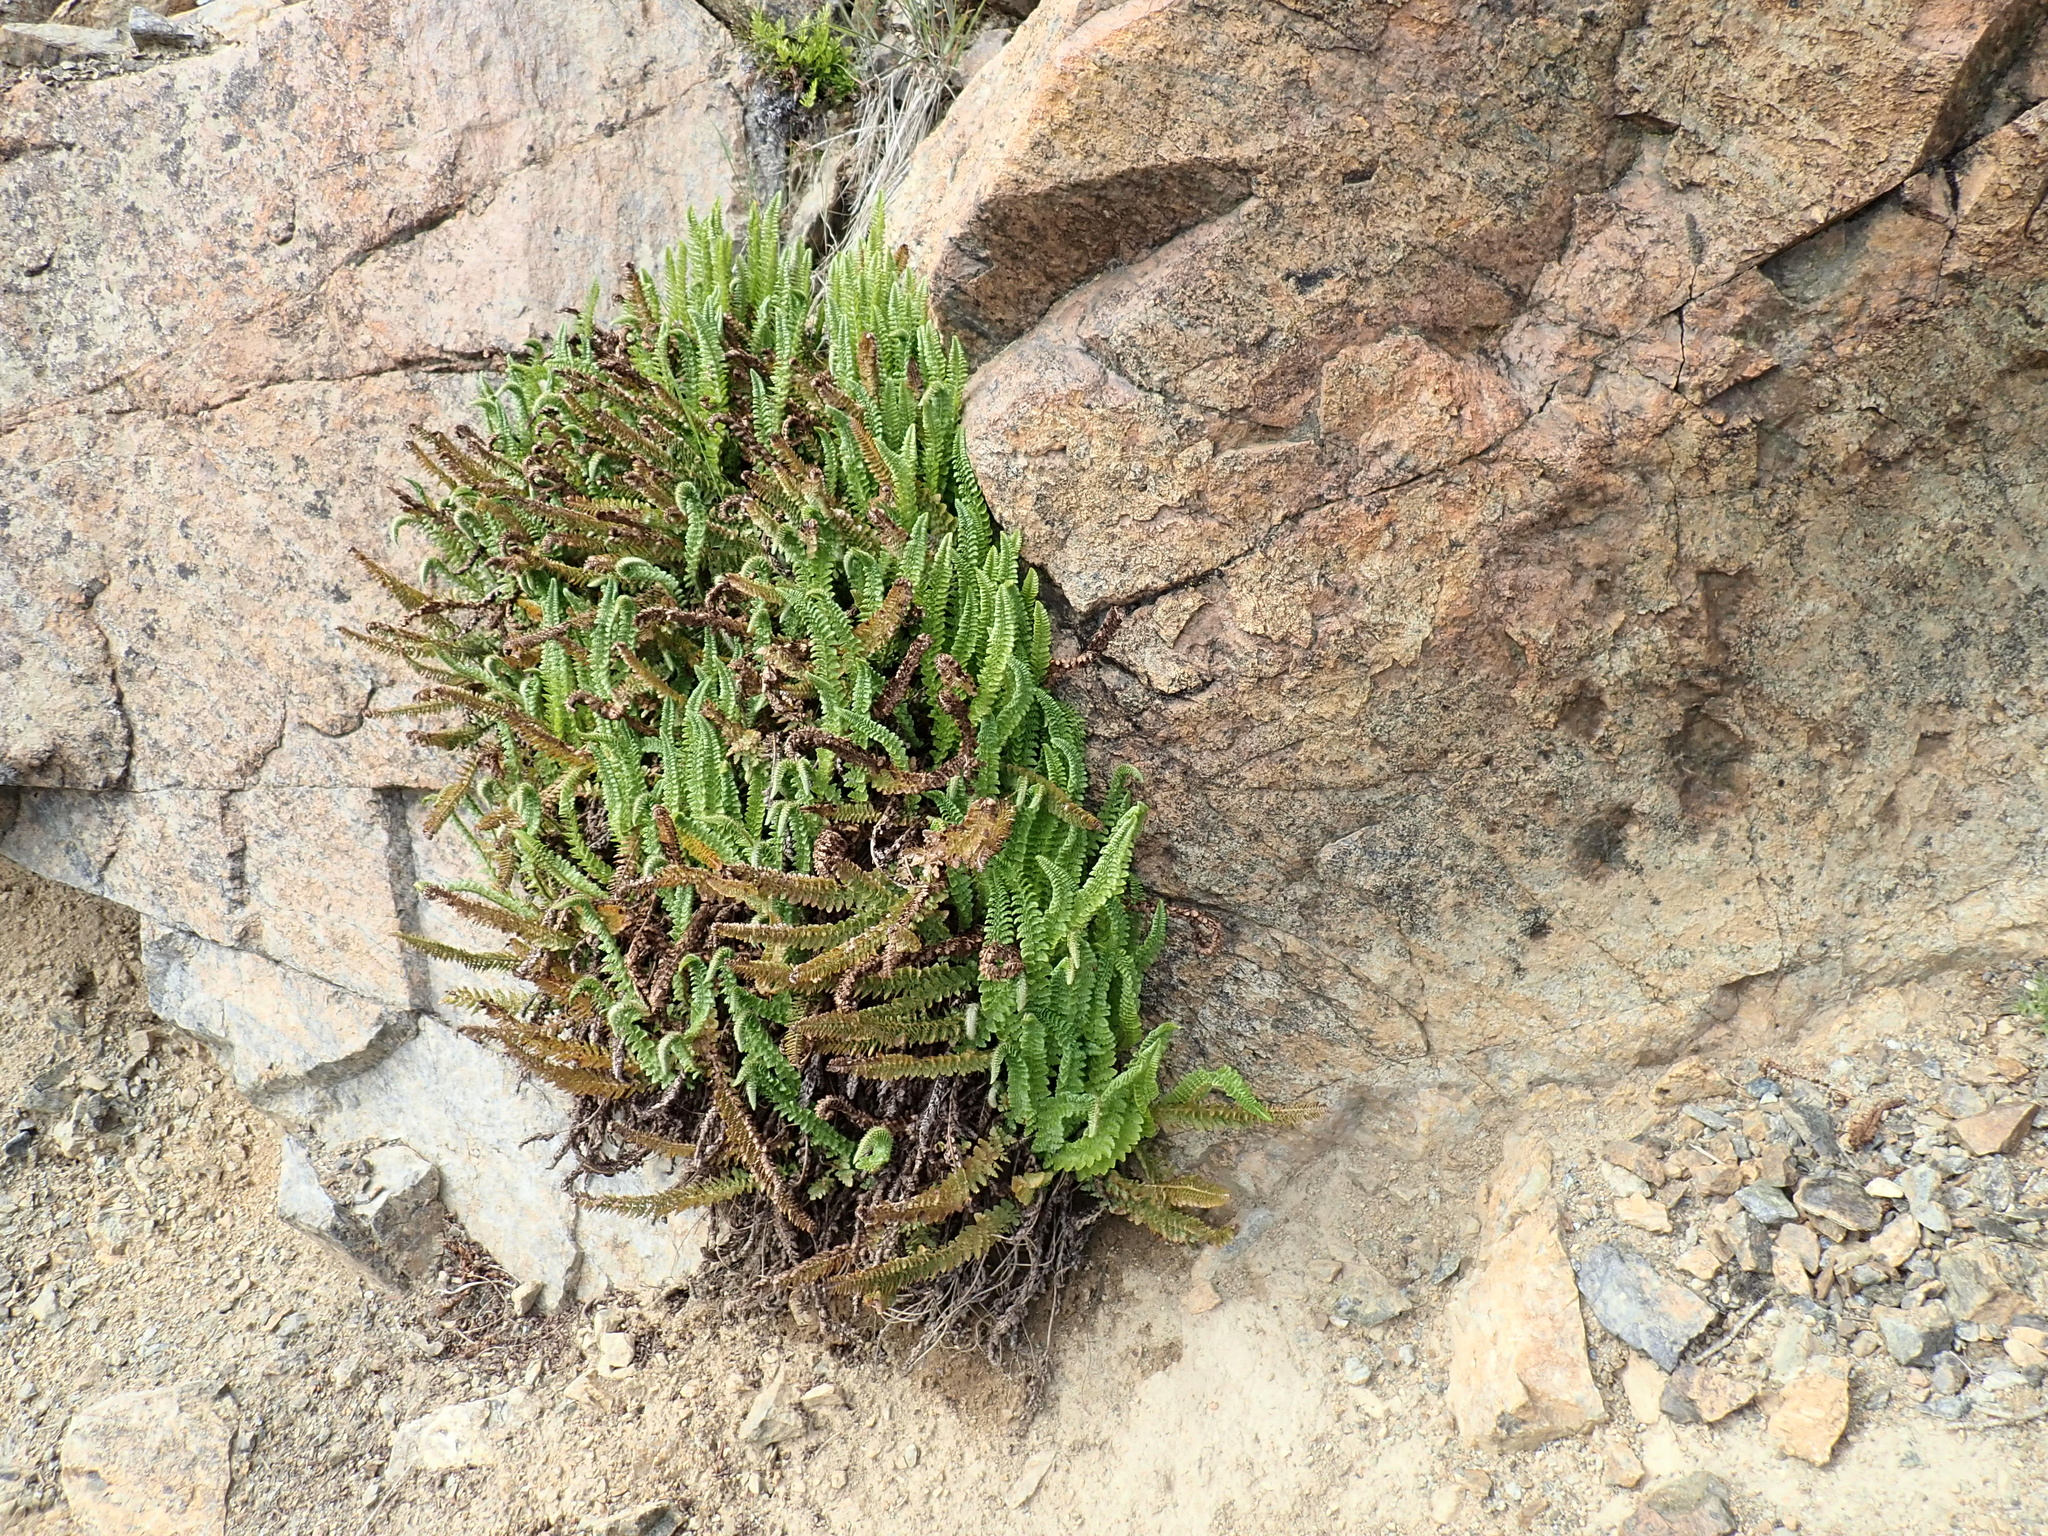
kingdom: Plantae
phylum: Tracheophyta
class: Polypodiopsida
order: Polypodiales
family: Dryopteridaceae
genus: Polystichum
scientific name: Polystichum lemmonii
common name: Lemmon's holly fern
